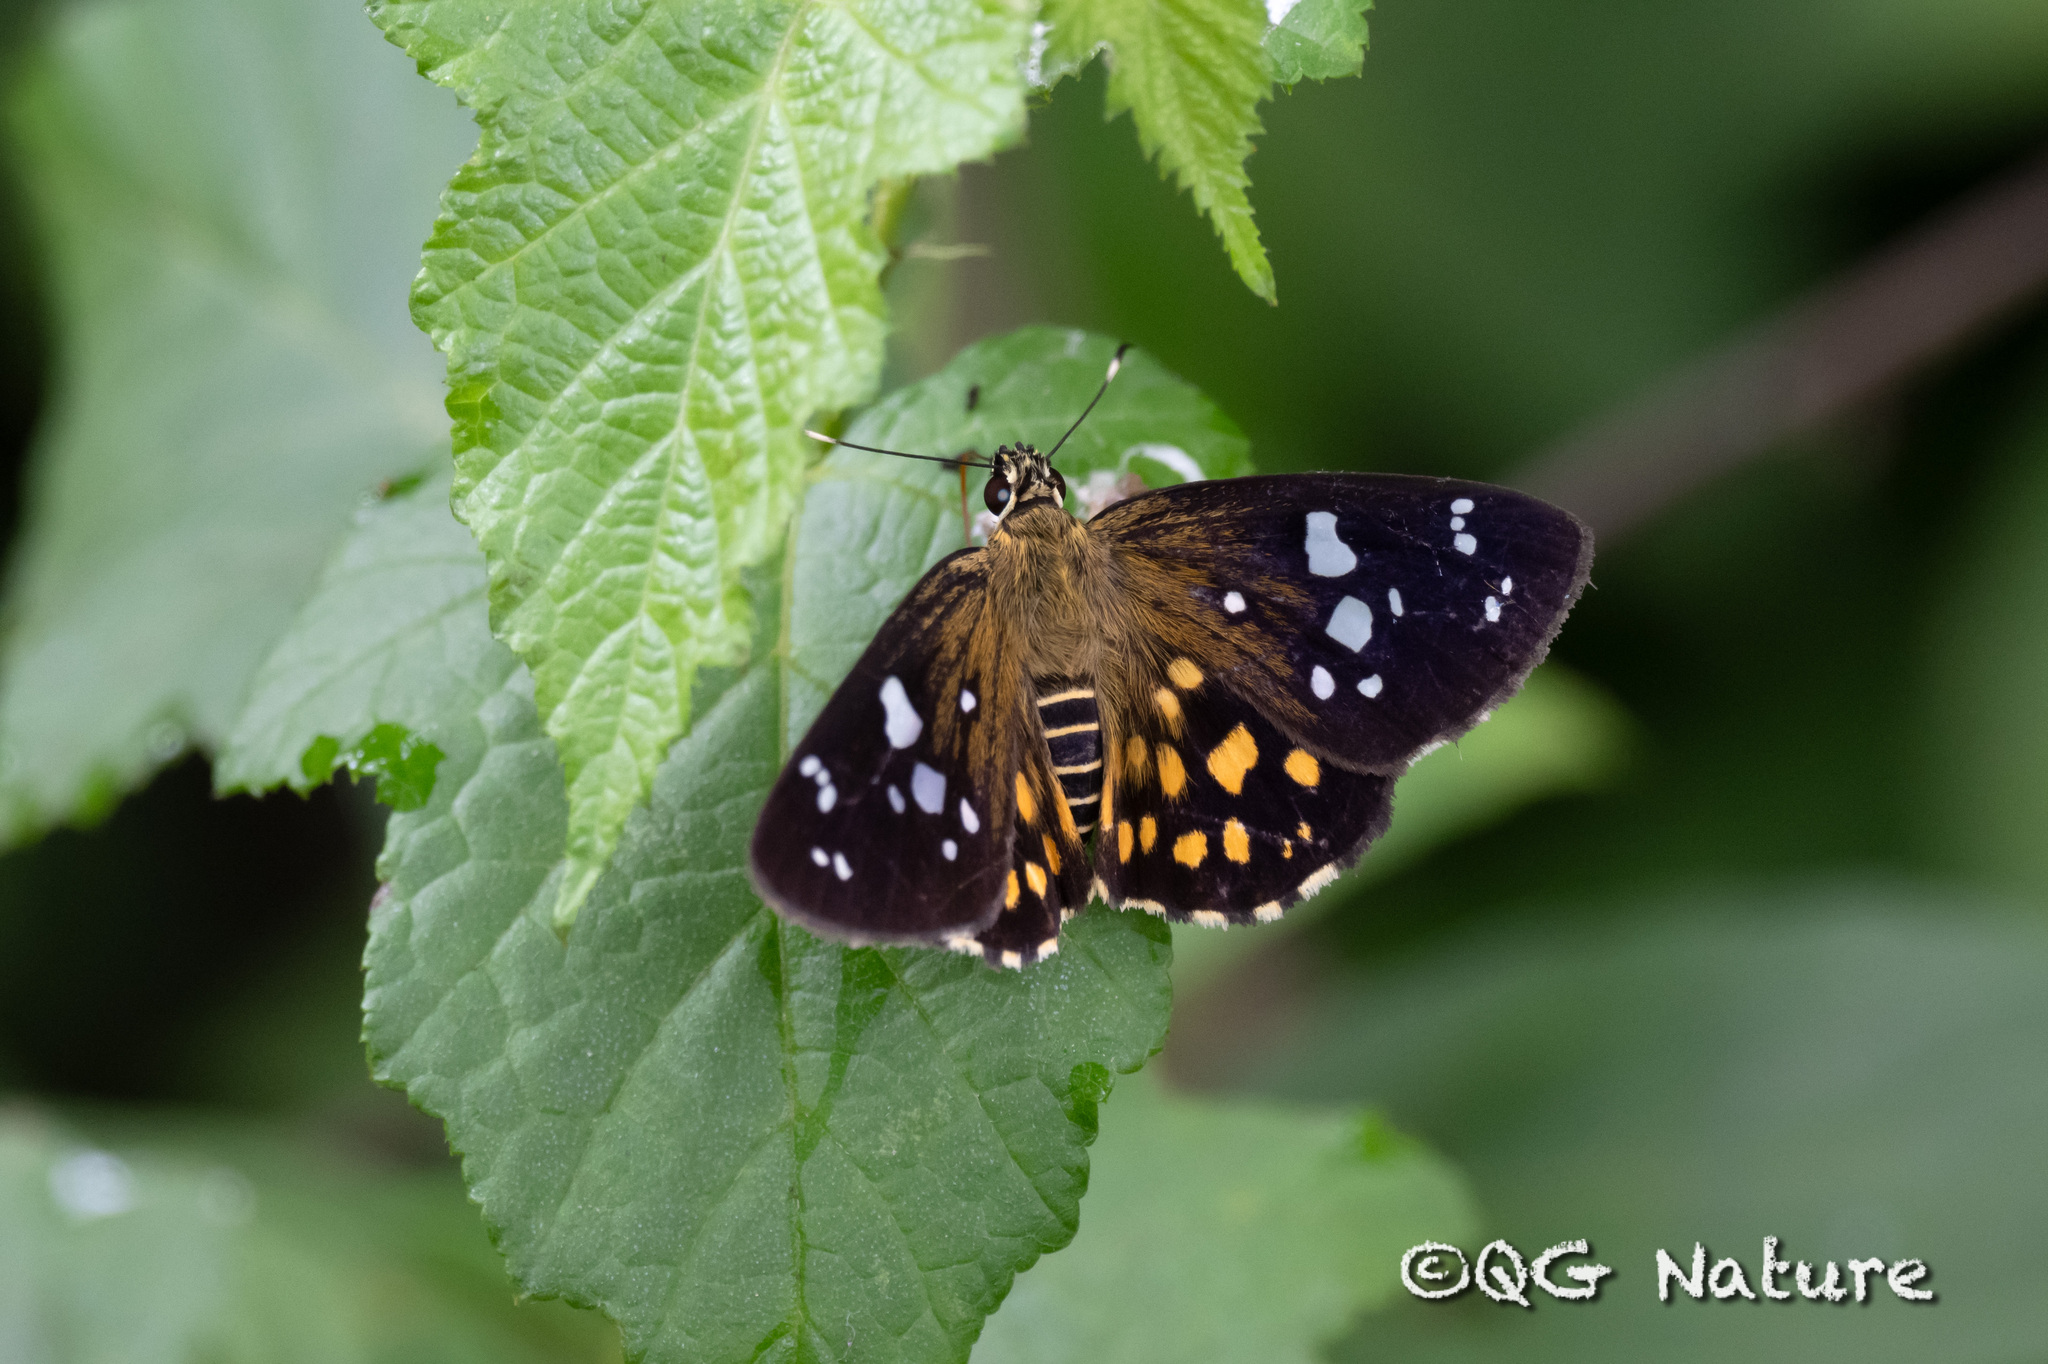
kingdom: Animalia
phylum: Arthropoda
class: Insecta
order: Lepidoptera
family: Hesperiidae
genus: Celaenorrhinus
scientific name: Celaenorrhinus maculosa
